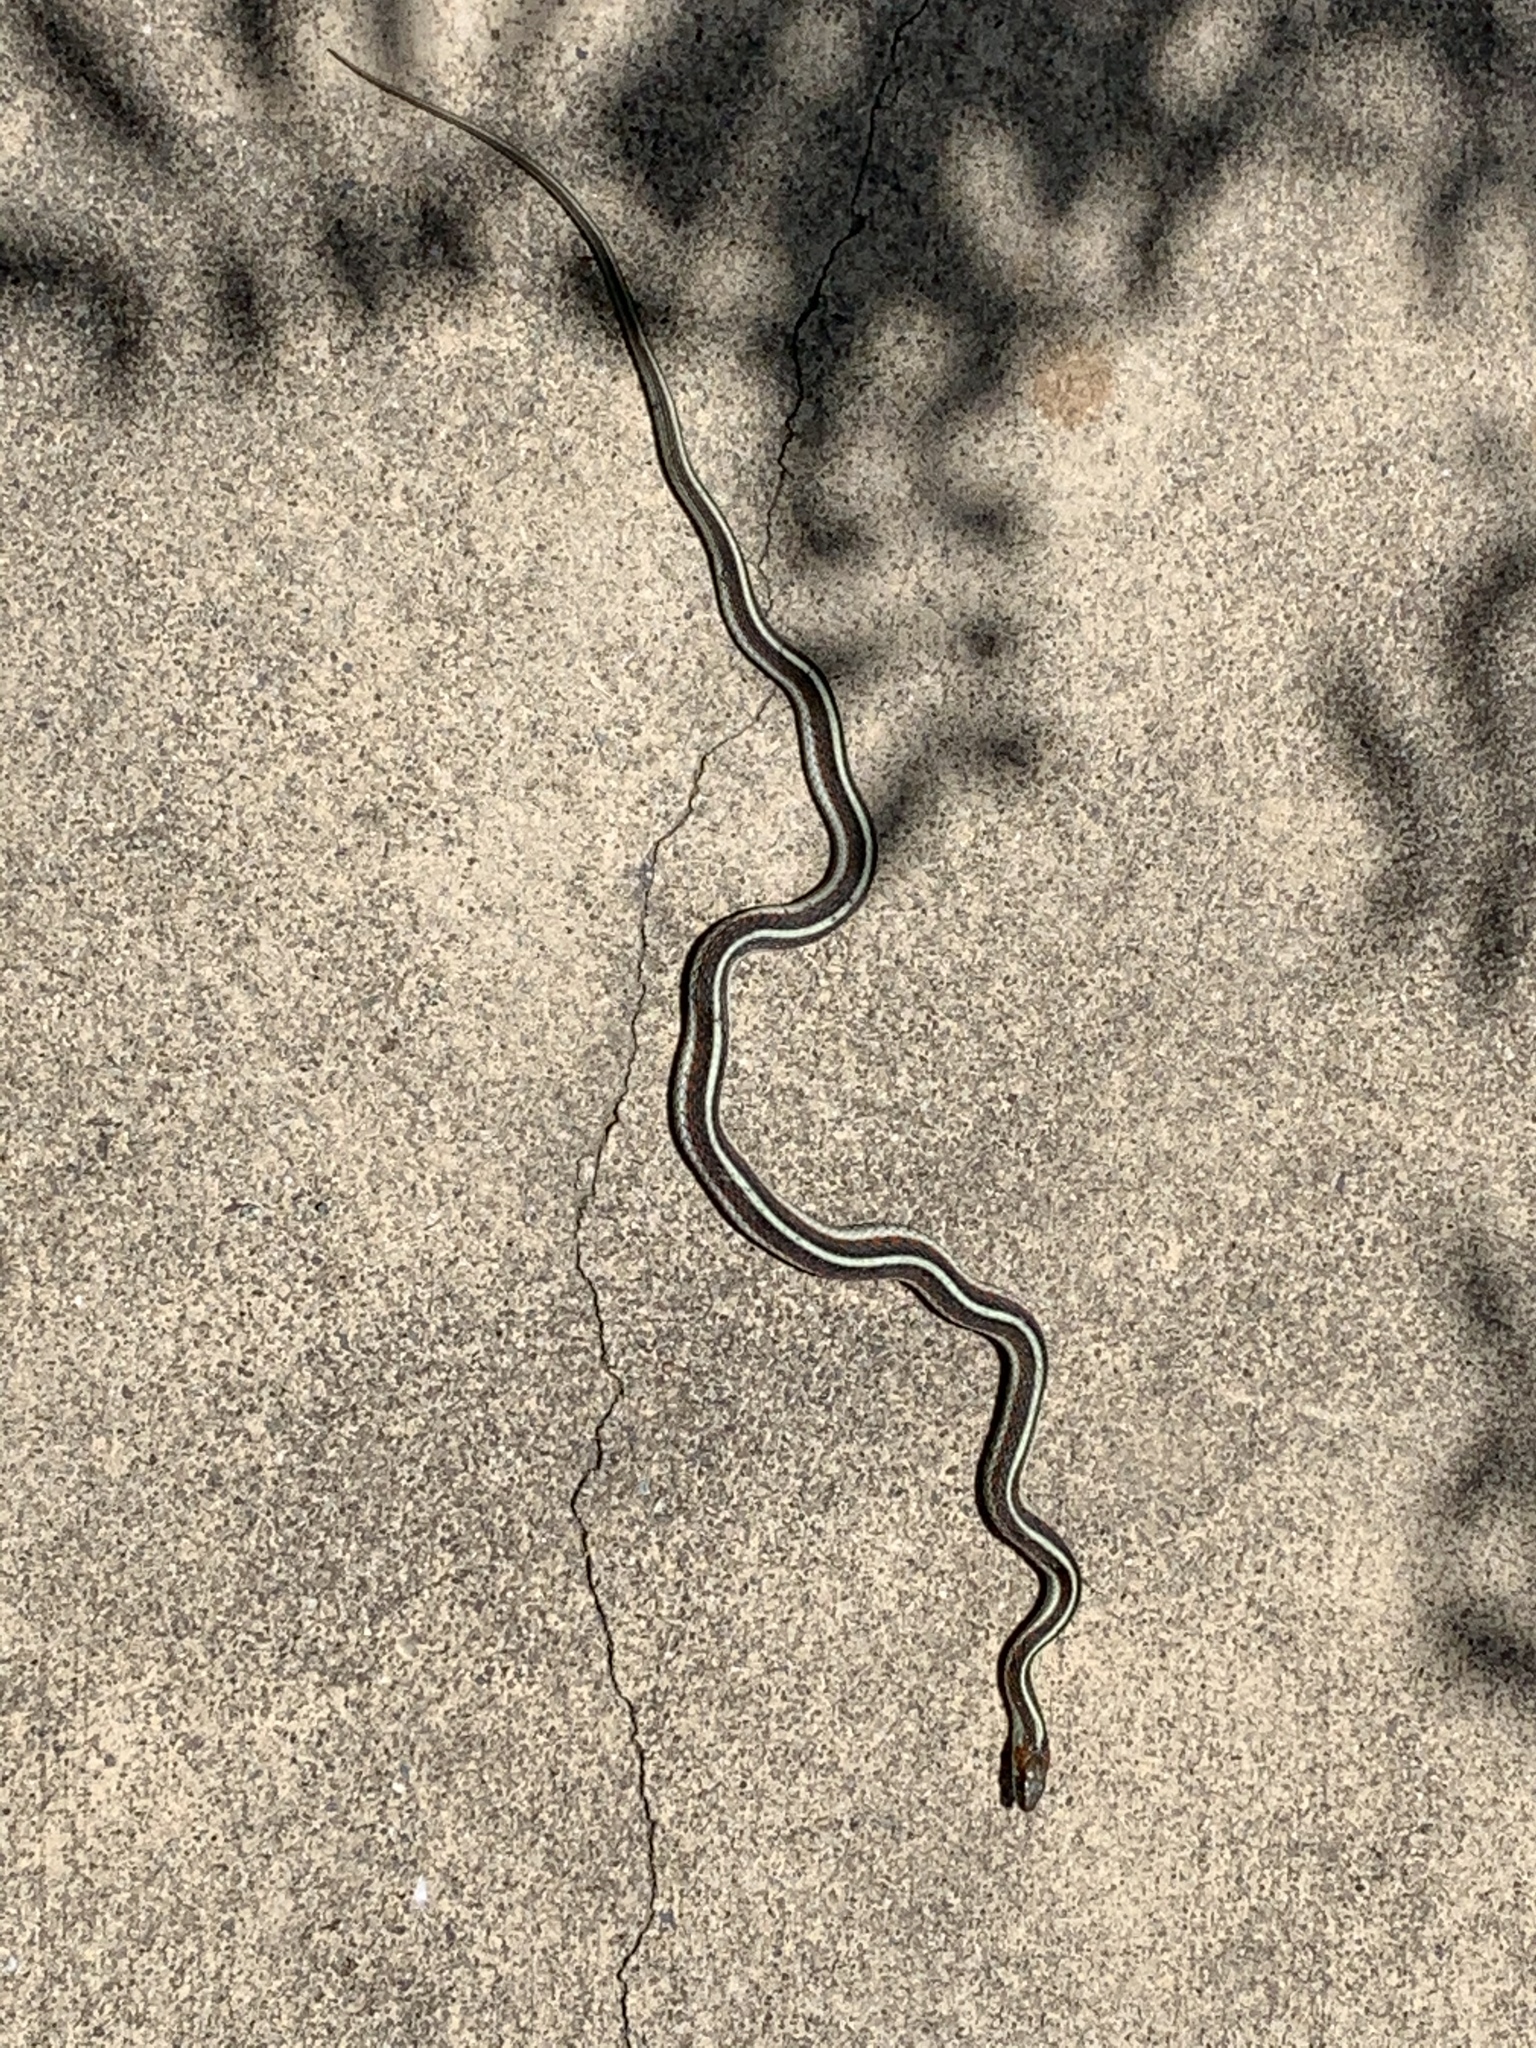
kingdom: Animalia
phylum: Chordata
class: Squamata
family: Colubridae
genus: Thamnophis
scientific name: Thamnophis sirtalis
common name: Common garter snake
